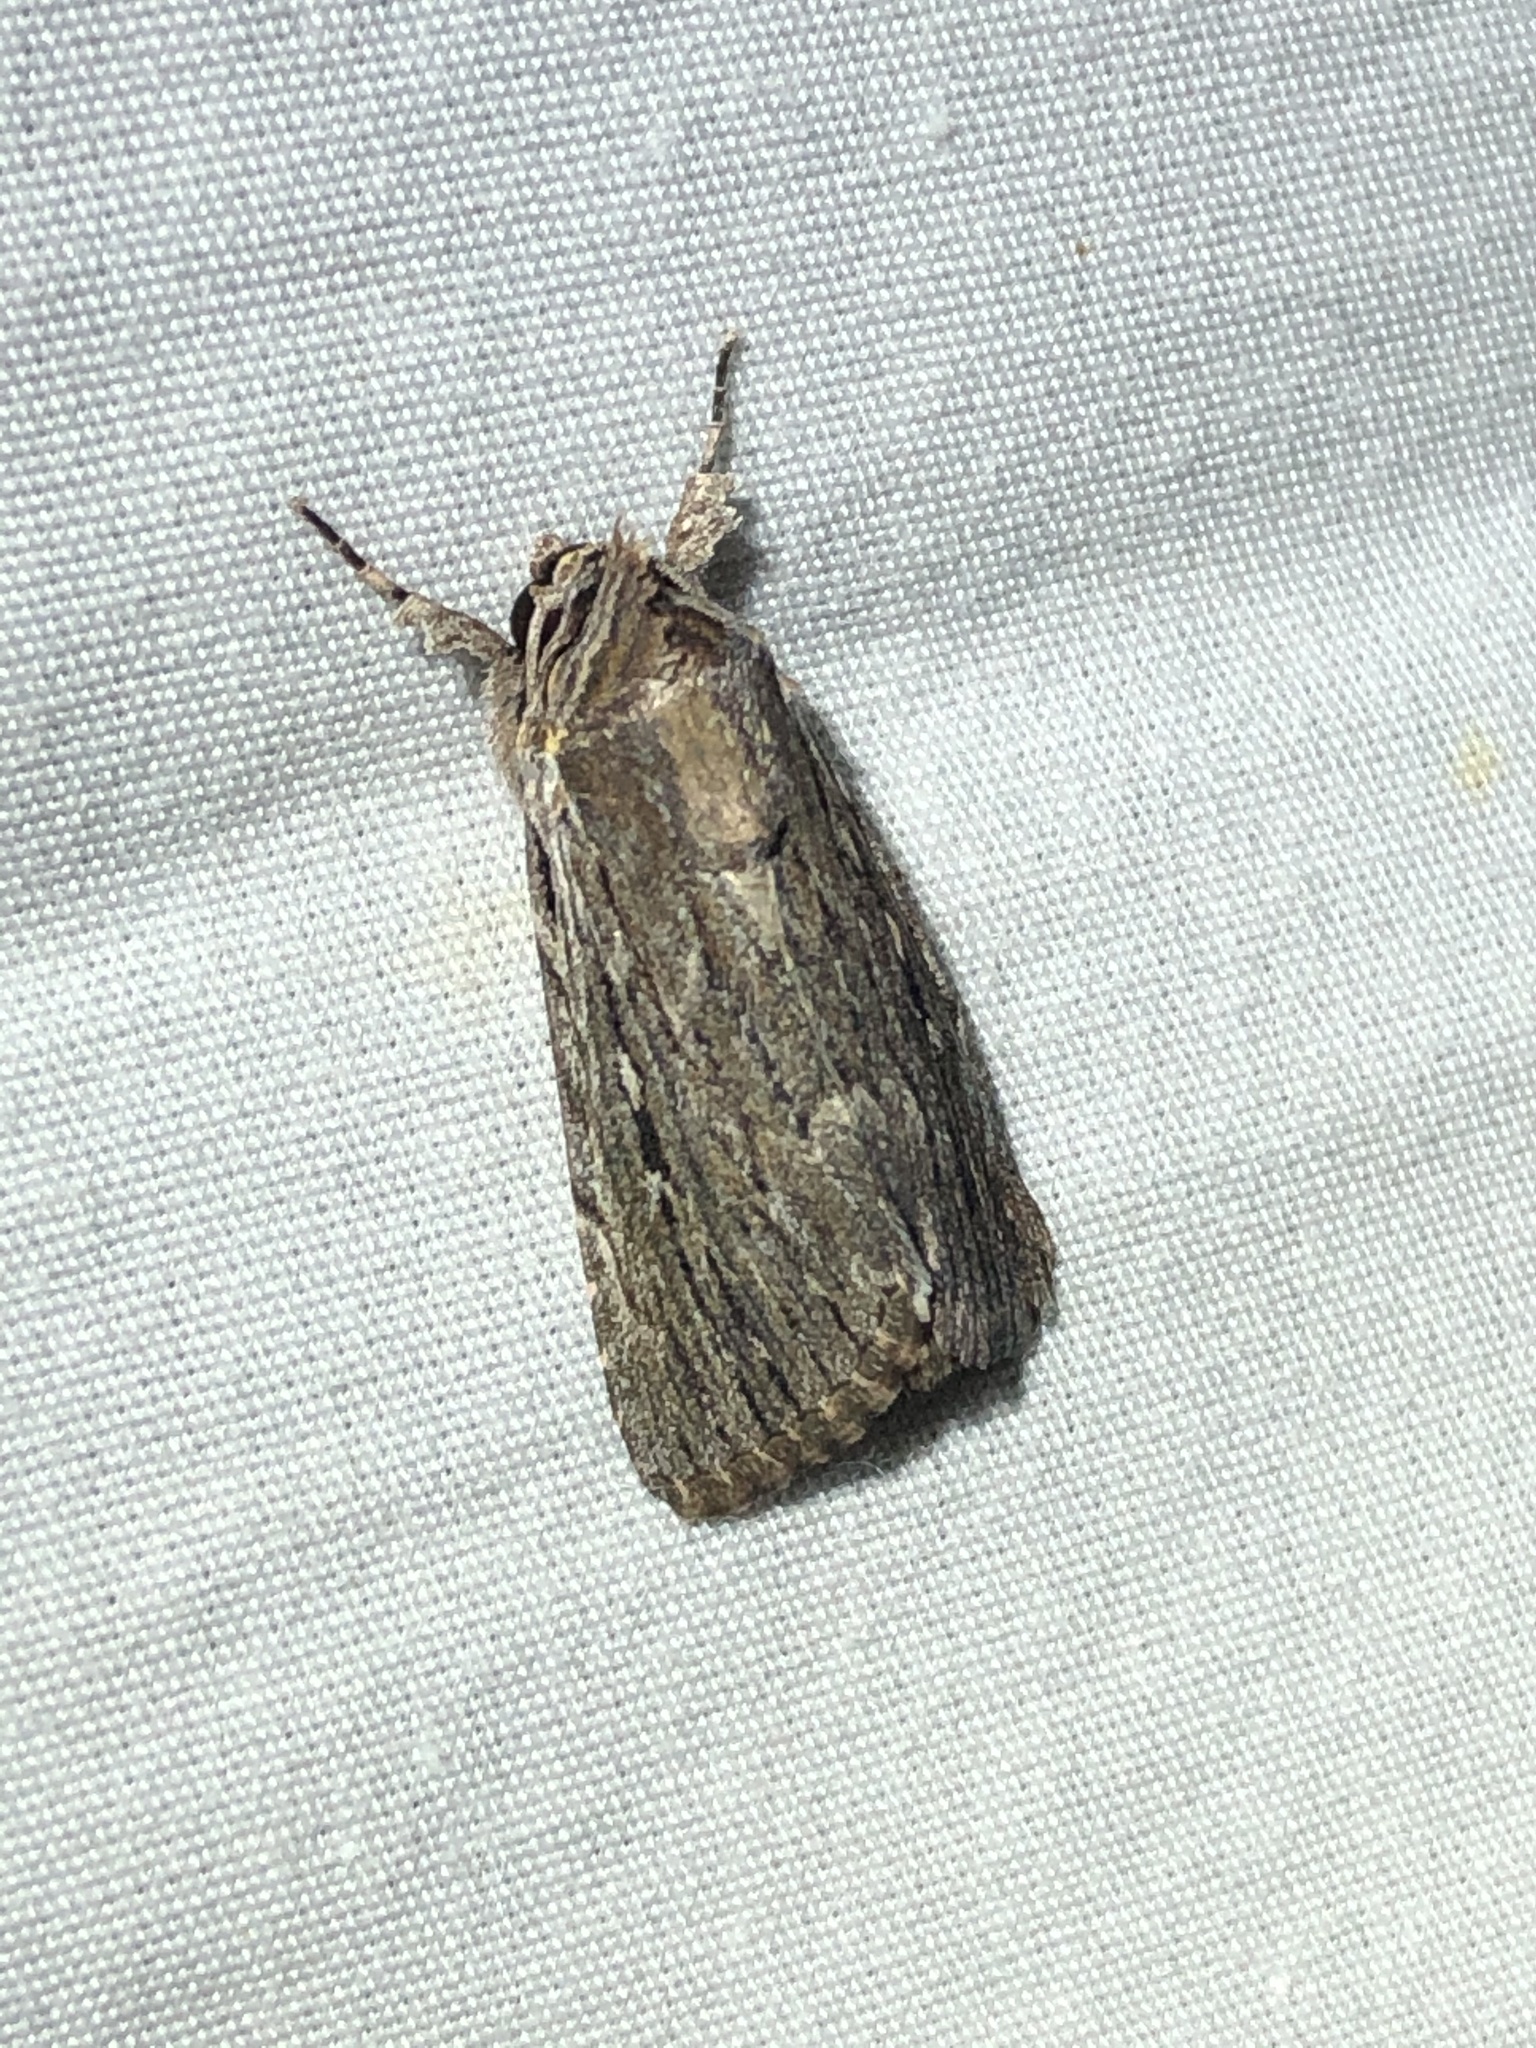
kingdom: Animalia
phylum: Arthropoda
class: Insecta
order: Lepidoptera
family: Noctuidae
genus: Neogalea
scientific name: Neogalea sunia
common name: Lantana stick caterpillar
